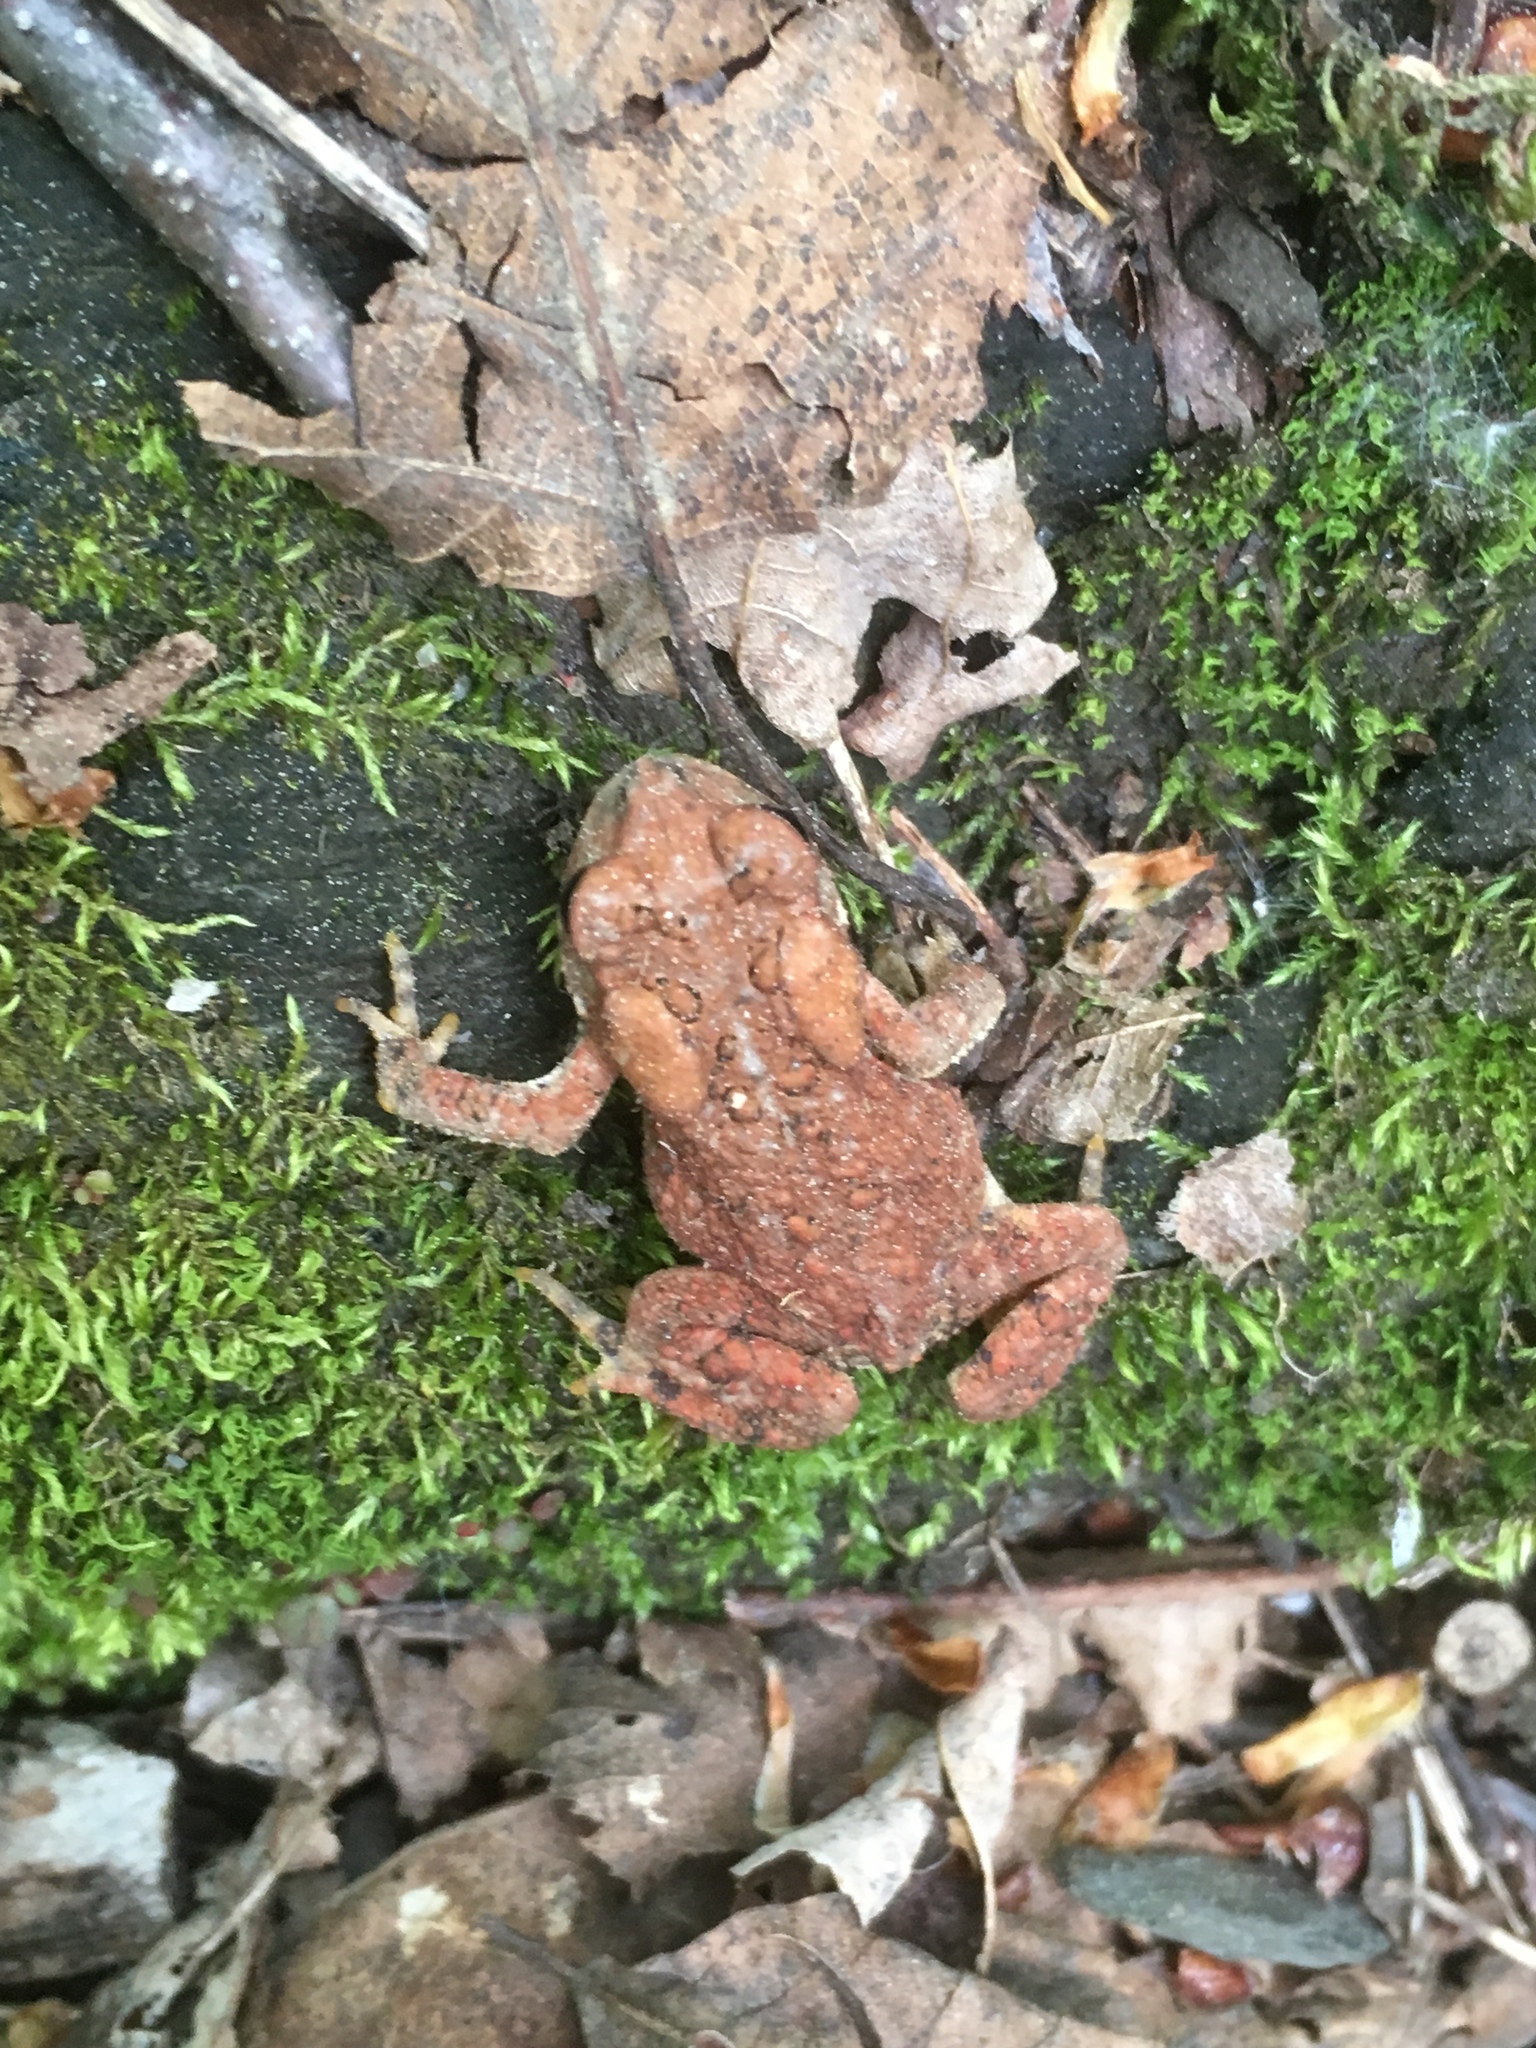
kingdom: Animalia
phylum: Chordata
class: Amphibia
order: Anura
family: Bufonidae
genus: Anaxyrus
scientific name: Anaxyrus americanus
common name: American toad
